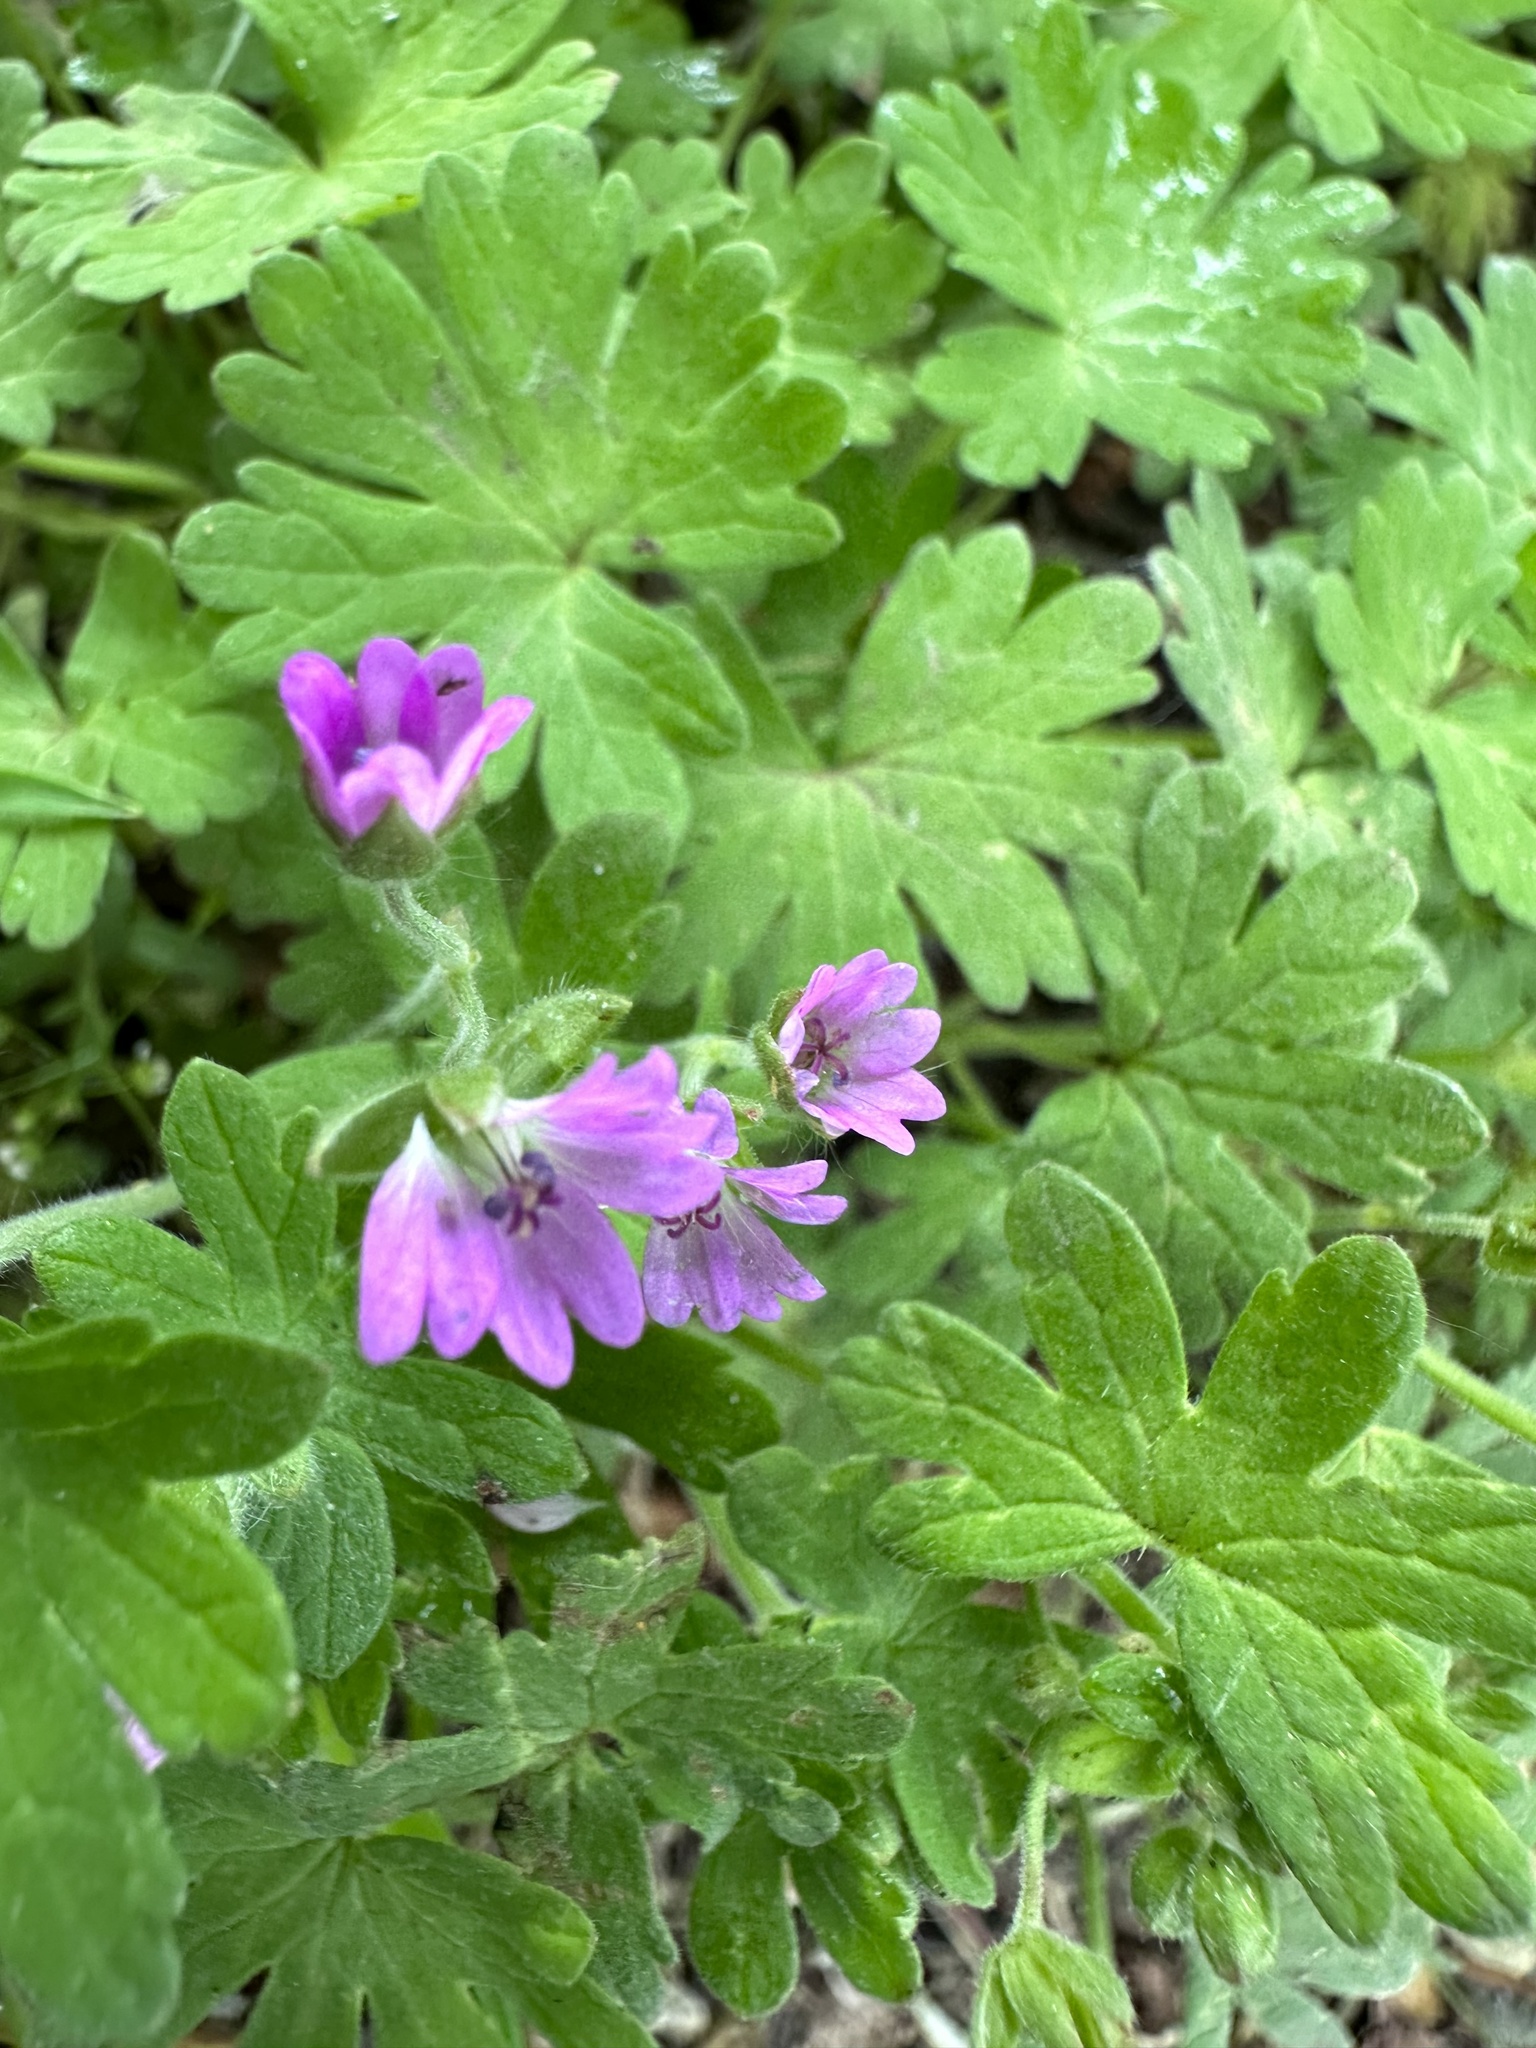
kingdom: Plantae
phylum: Tracheophyta
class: Magnoliopsida
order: Geraniales
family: Geraniaceae
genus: Geranium
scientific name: Geranium molle
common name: Dove's-foot crane's-bill
